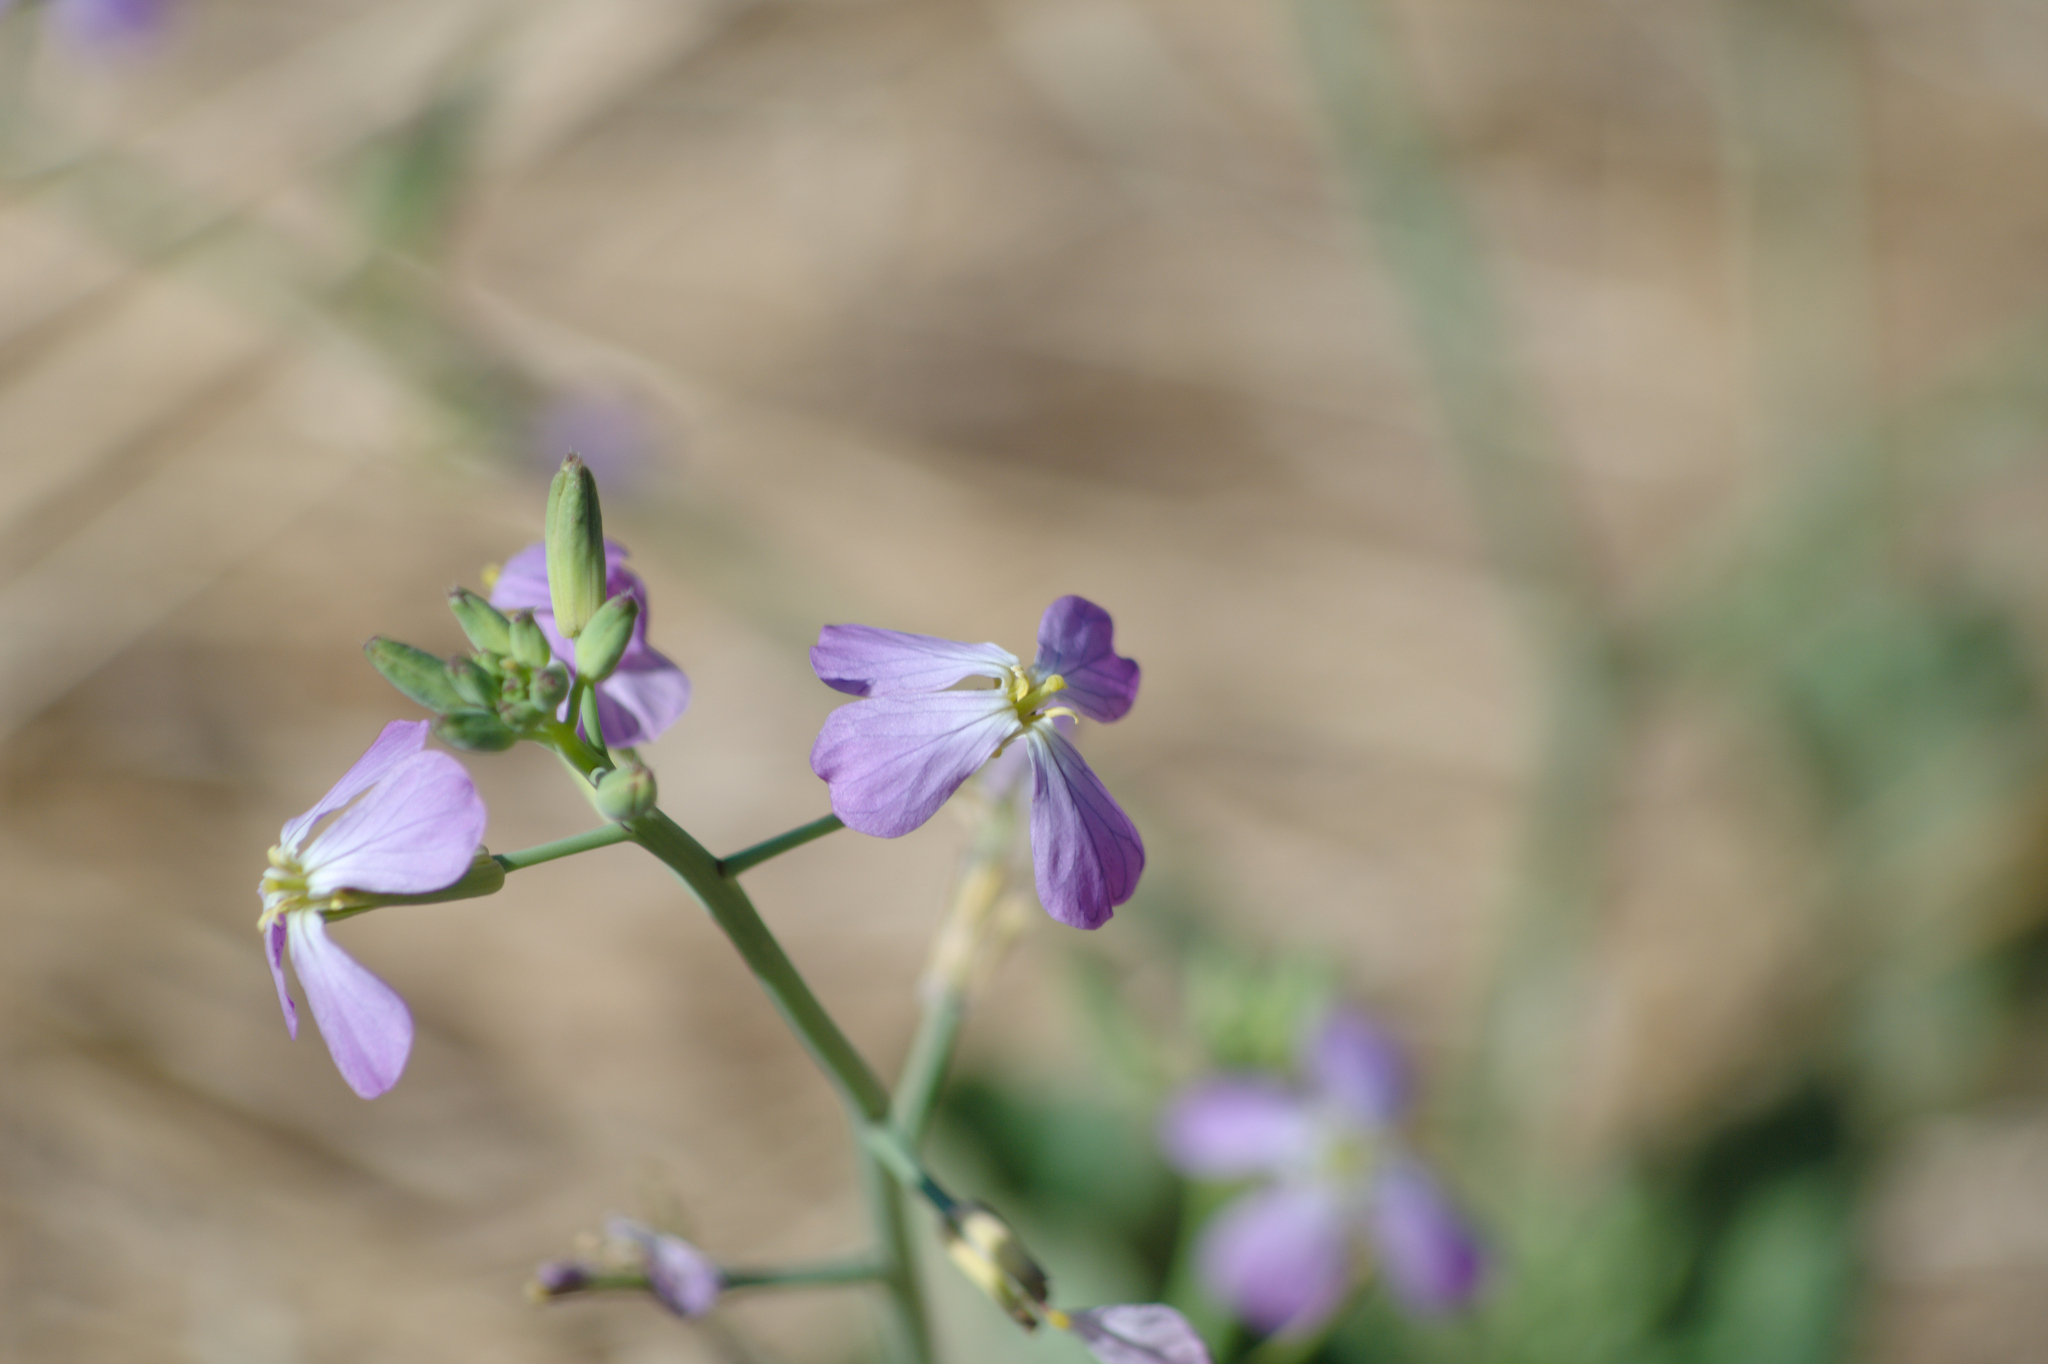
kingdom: Plantae
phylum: Tracheophyta
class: Magnoliopsida
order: Brassicales
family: Brassicaceae
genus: Raphanus
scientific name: Raphanus sativus
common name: Cultivated radish
